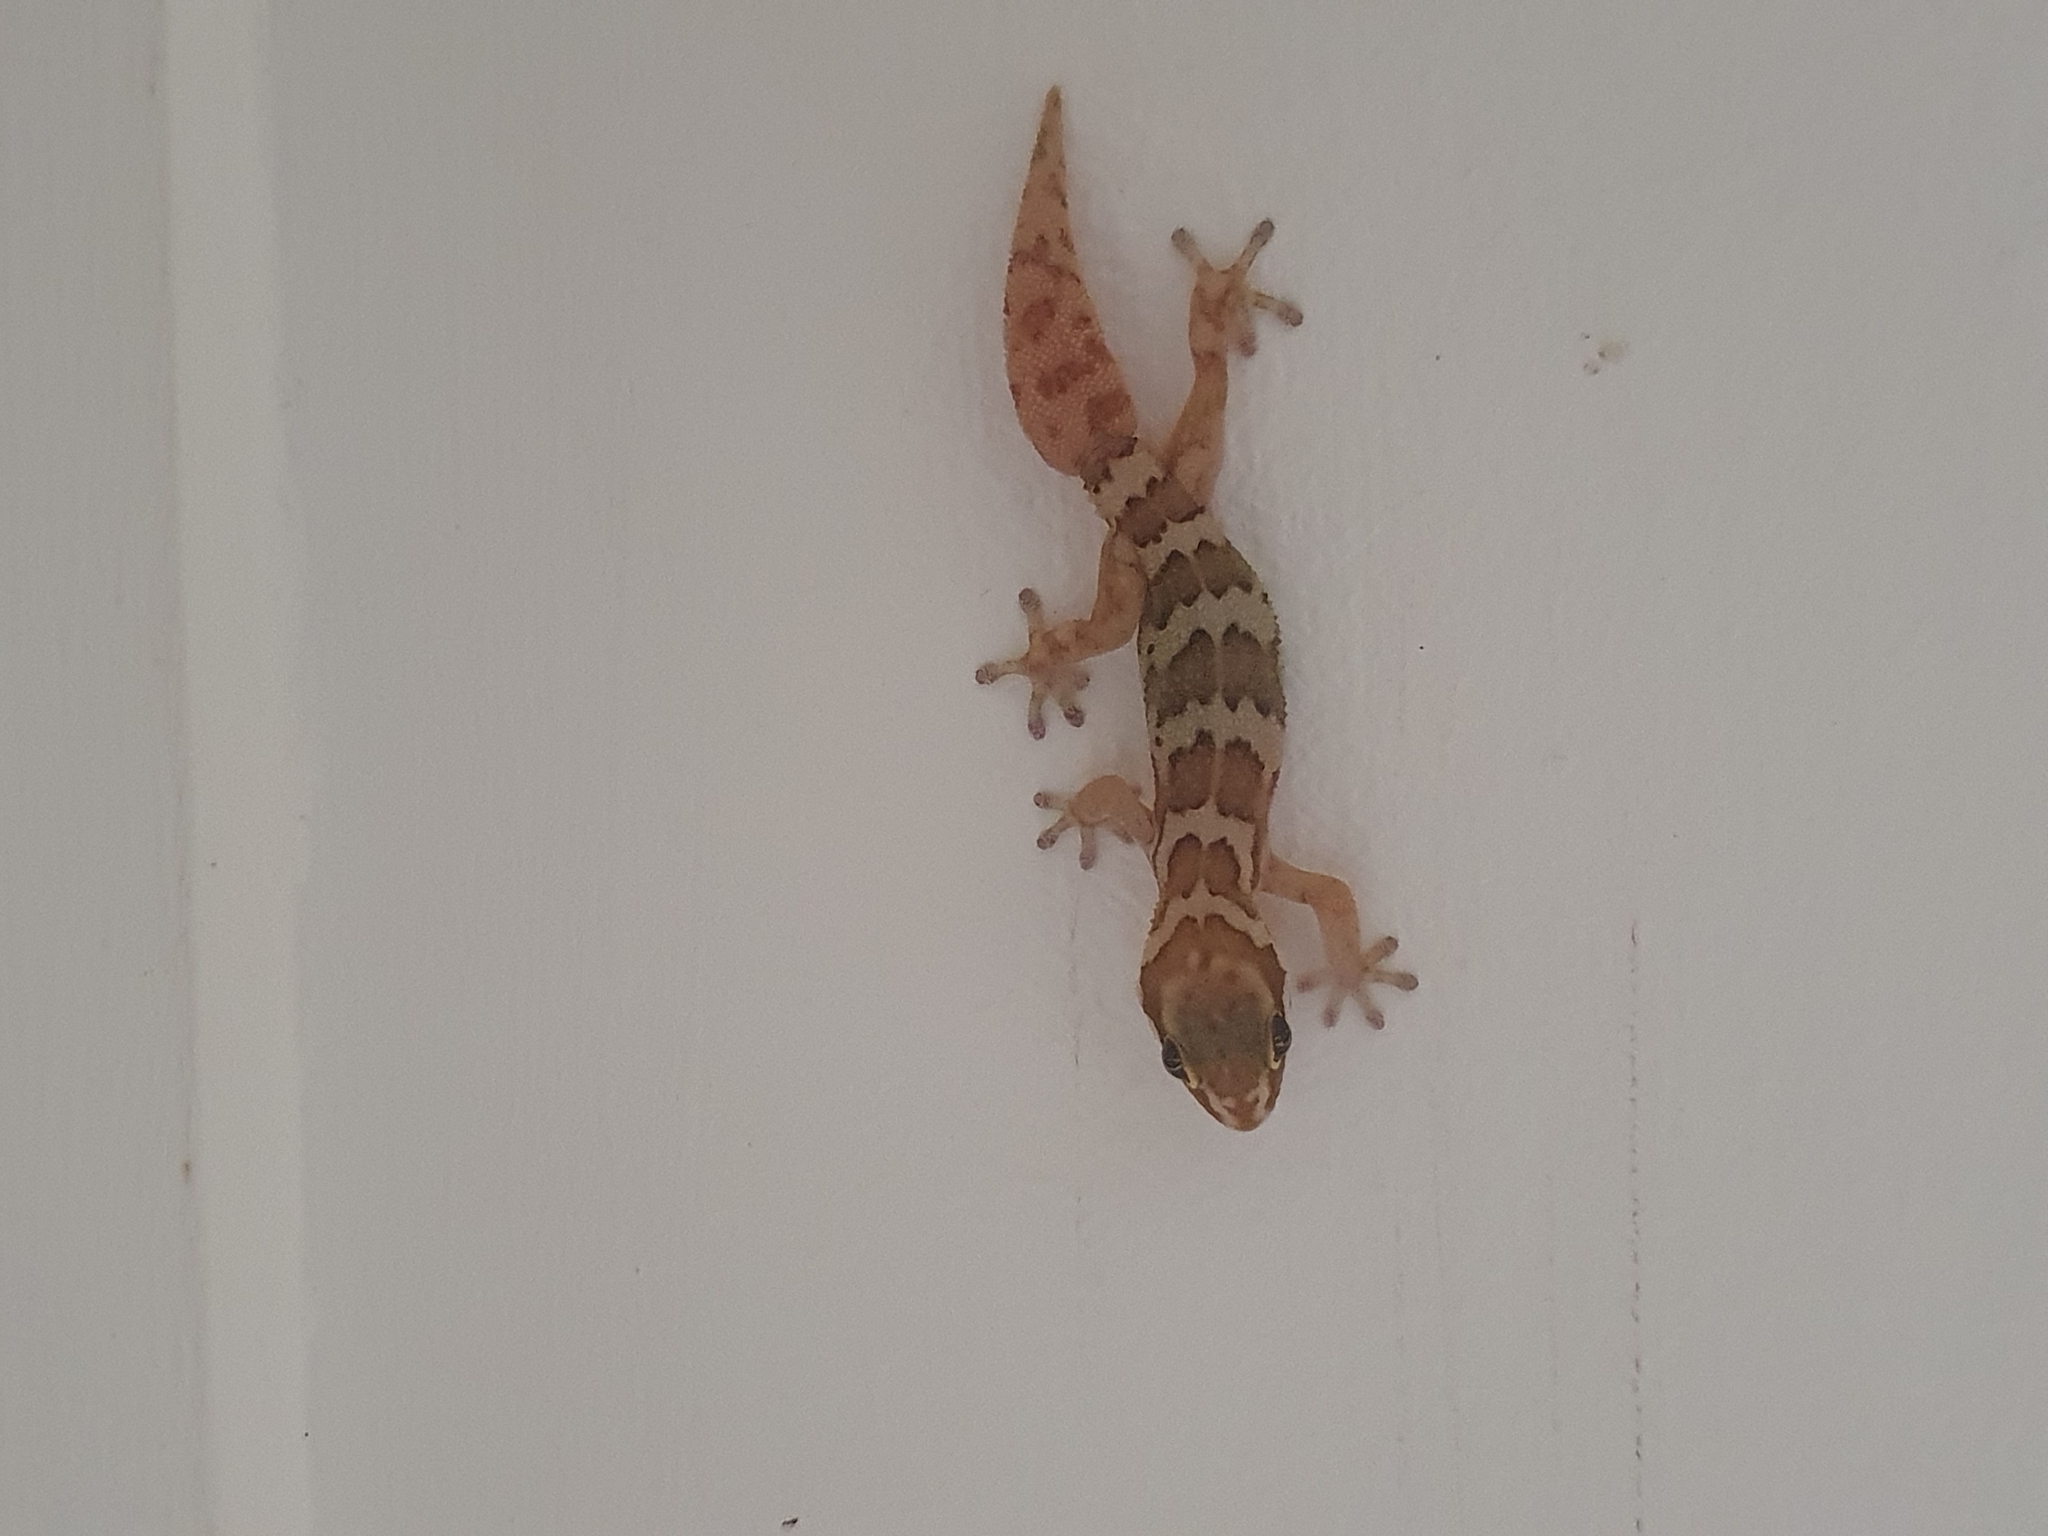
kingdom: Animalia
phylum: Chordata
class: Squamata
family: Gekkonidae
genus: Pachydactylus
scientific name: Pachydactylus formosus
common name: Southern rough gecko
